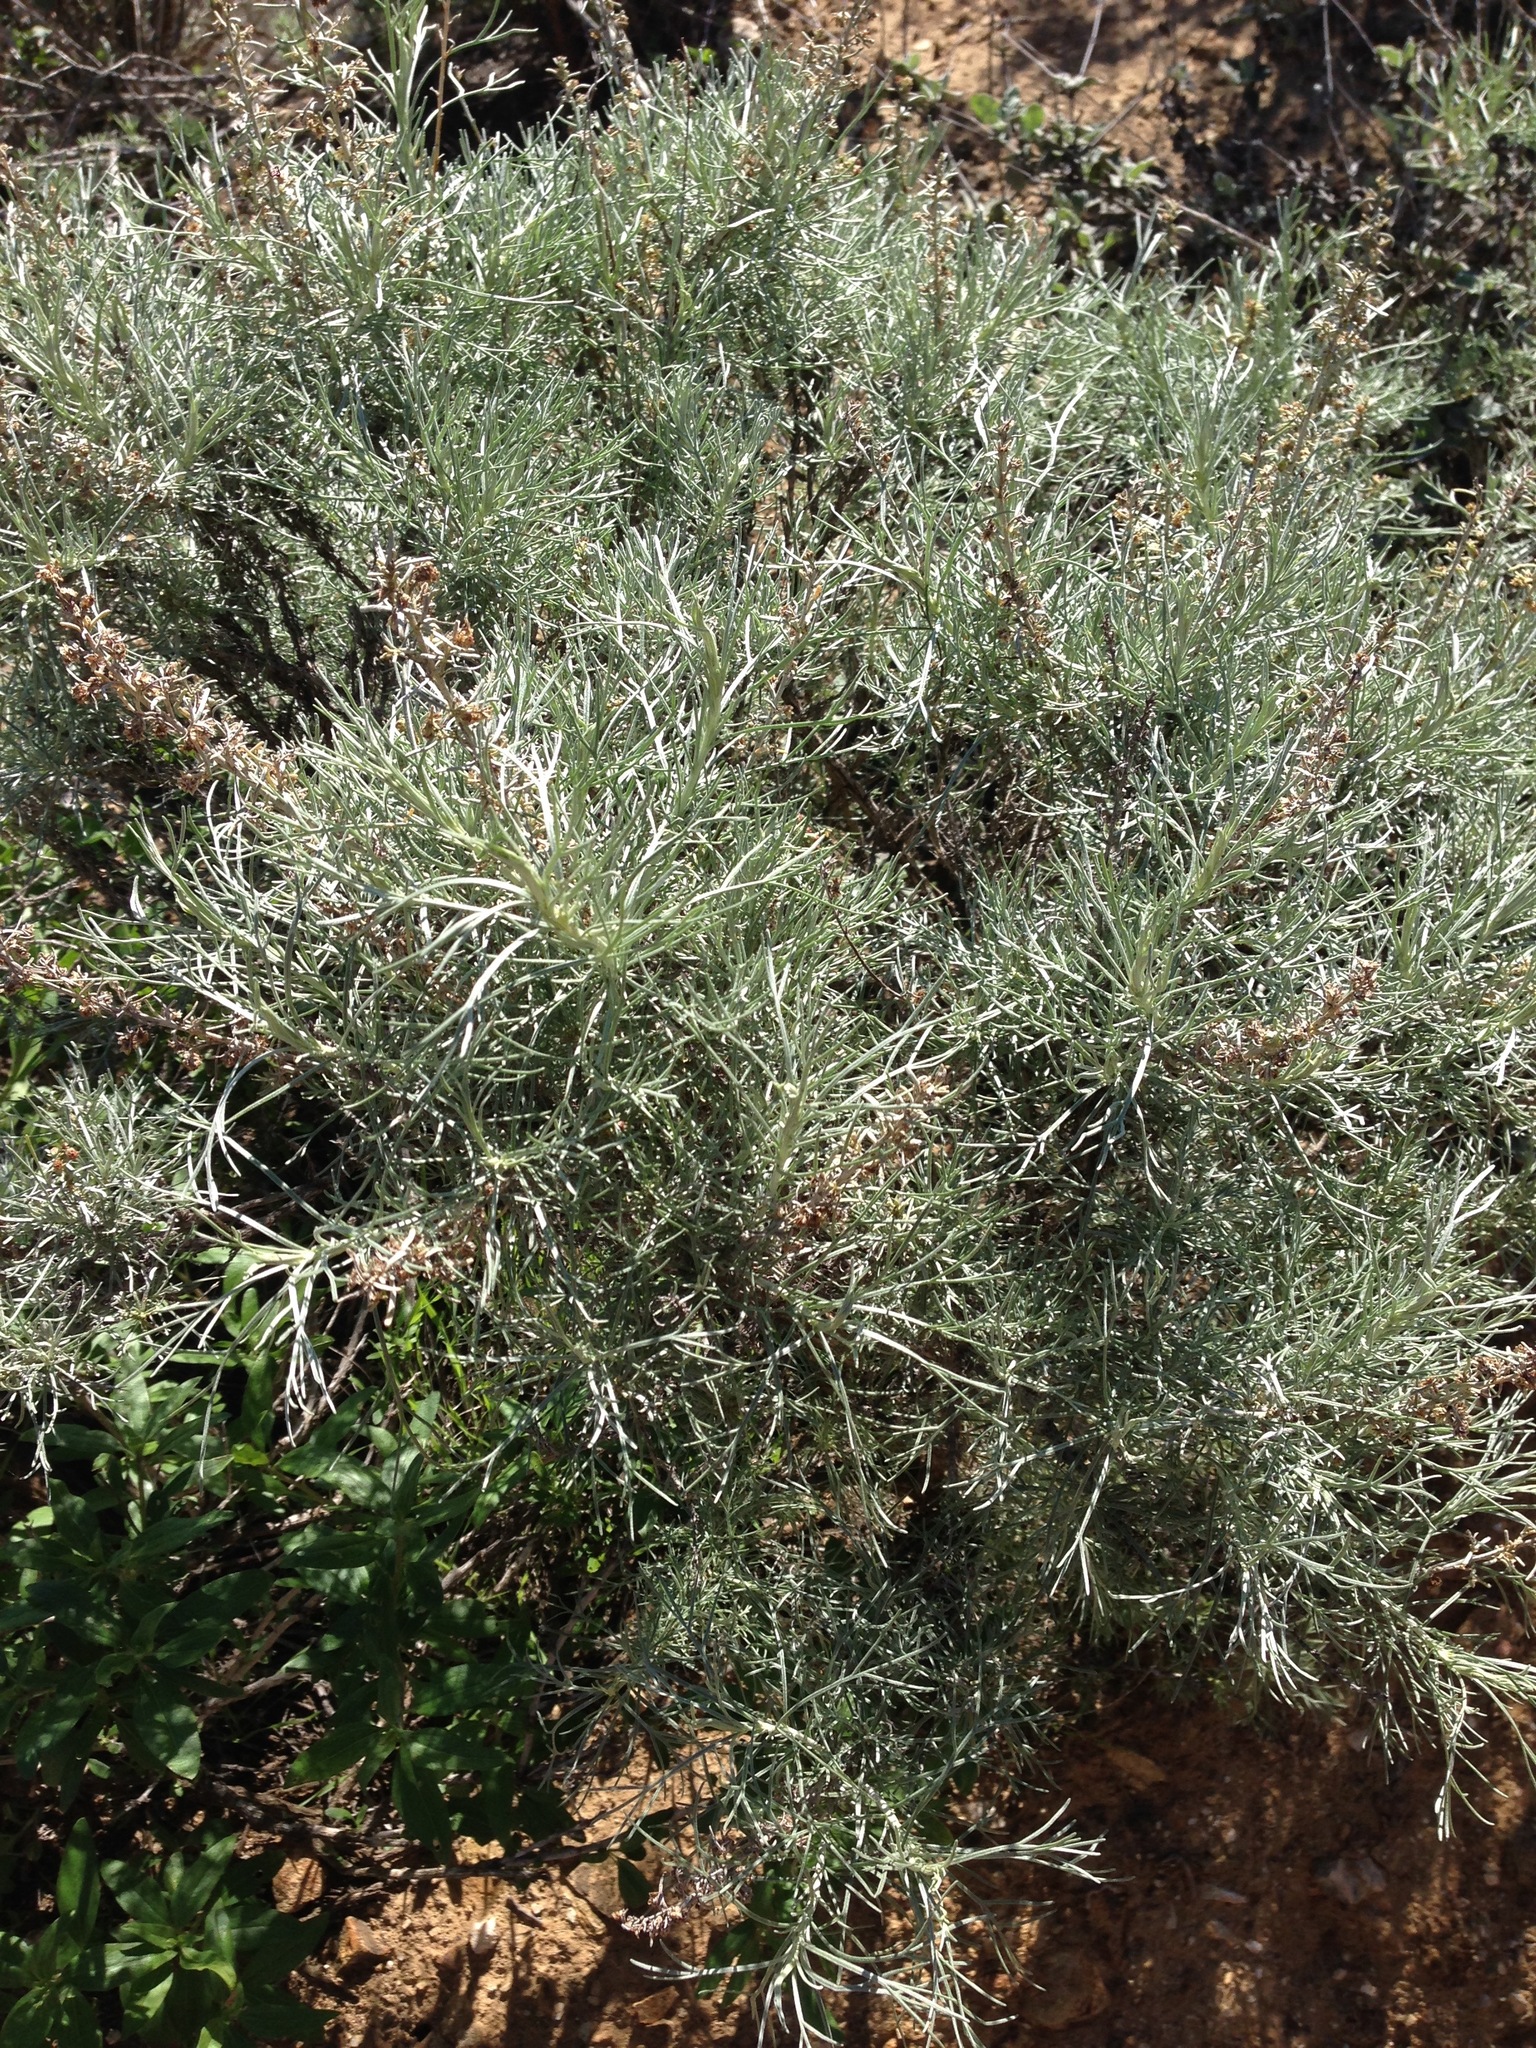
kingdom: Plantae
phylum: Tracheophyta
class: Magnoliopsida
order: Asterales
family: Asteraceae
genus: Artemisia
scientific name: Artemisia californica
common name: California sagebrush
